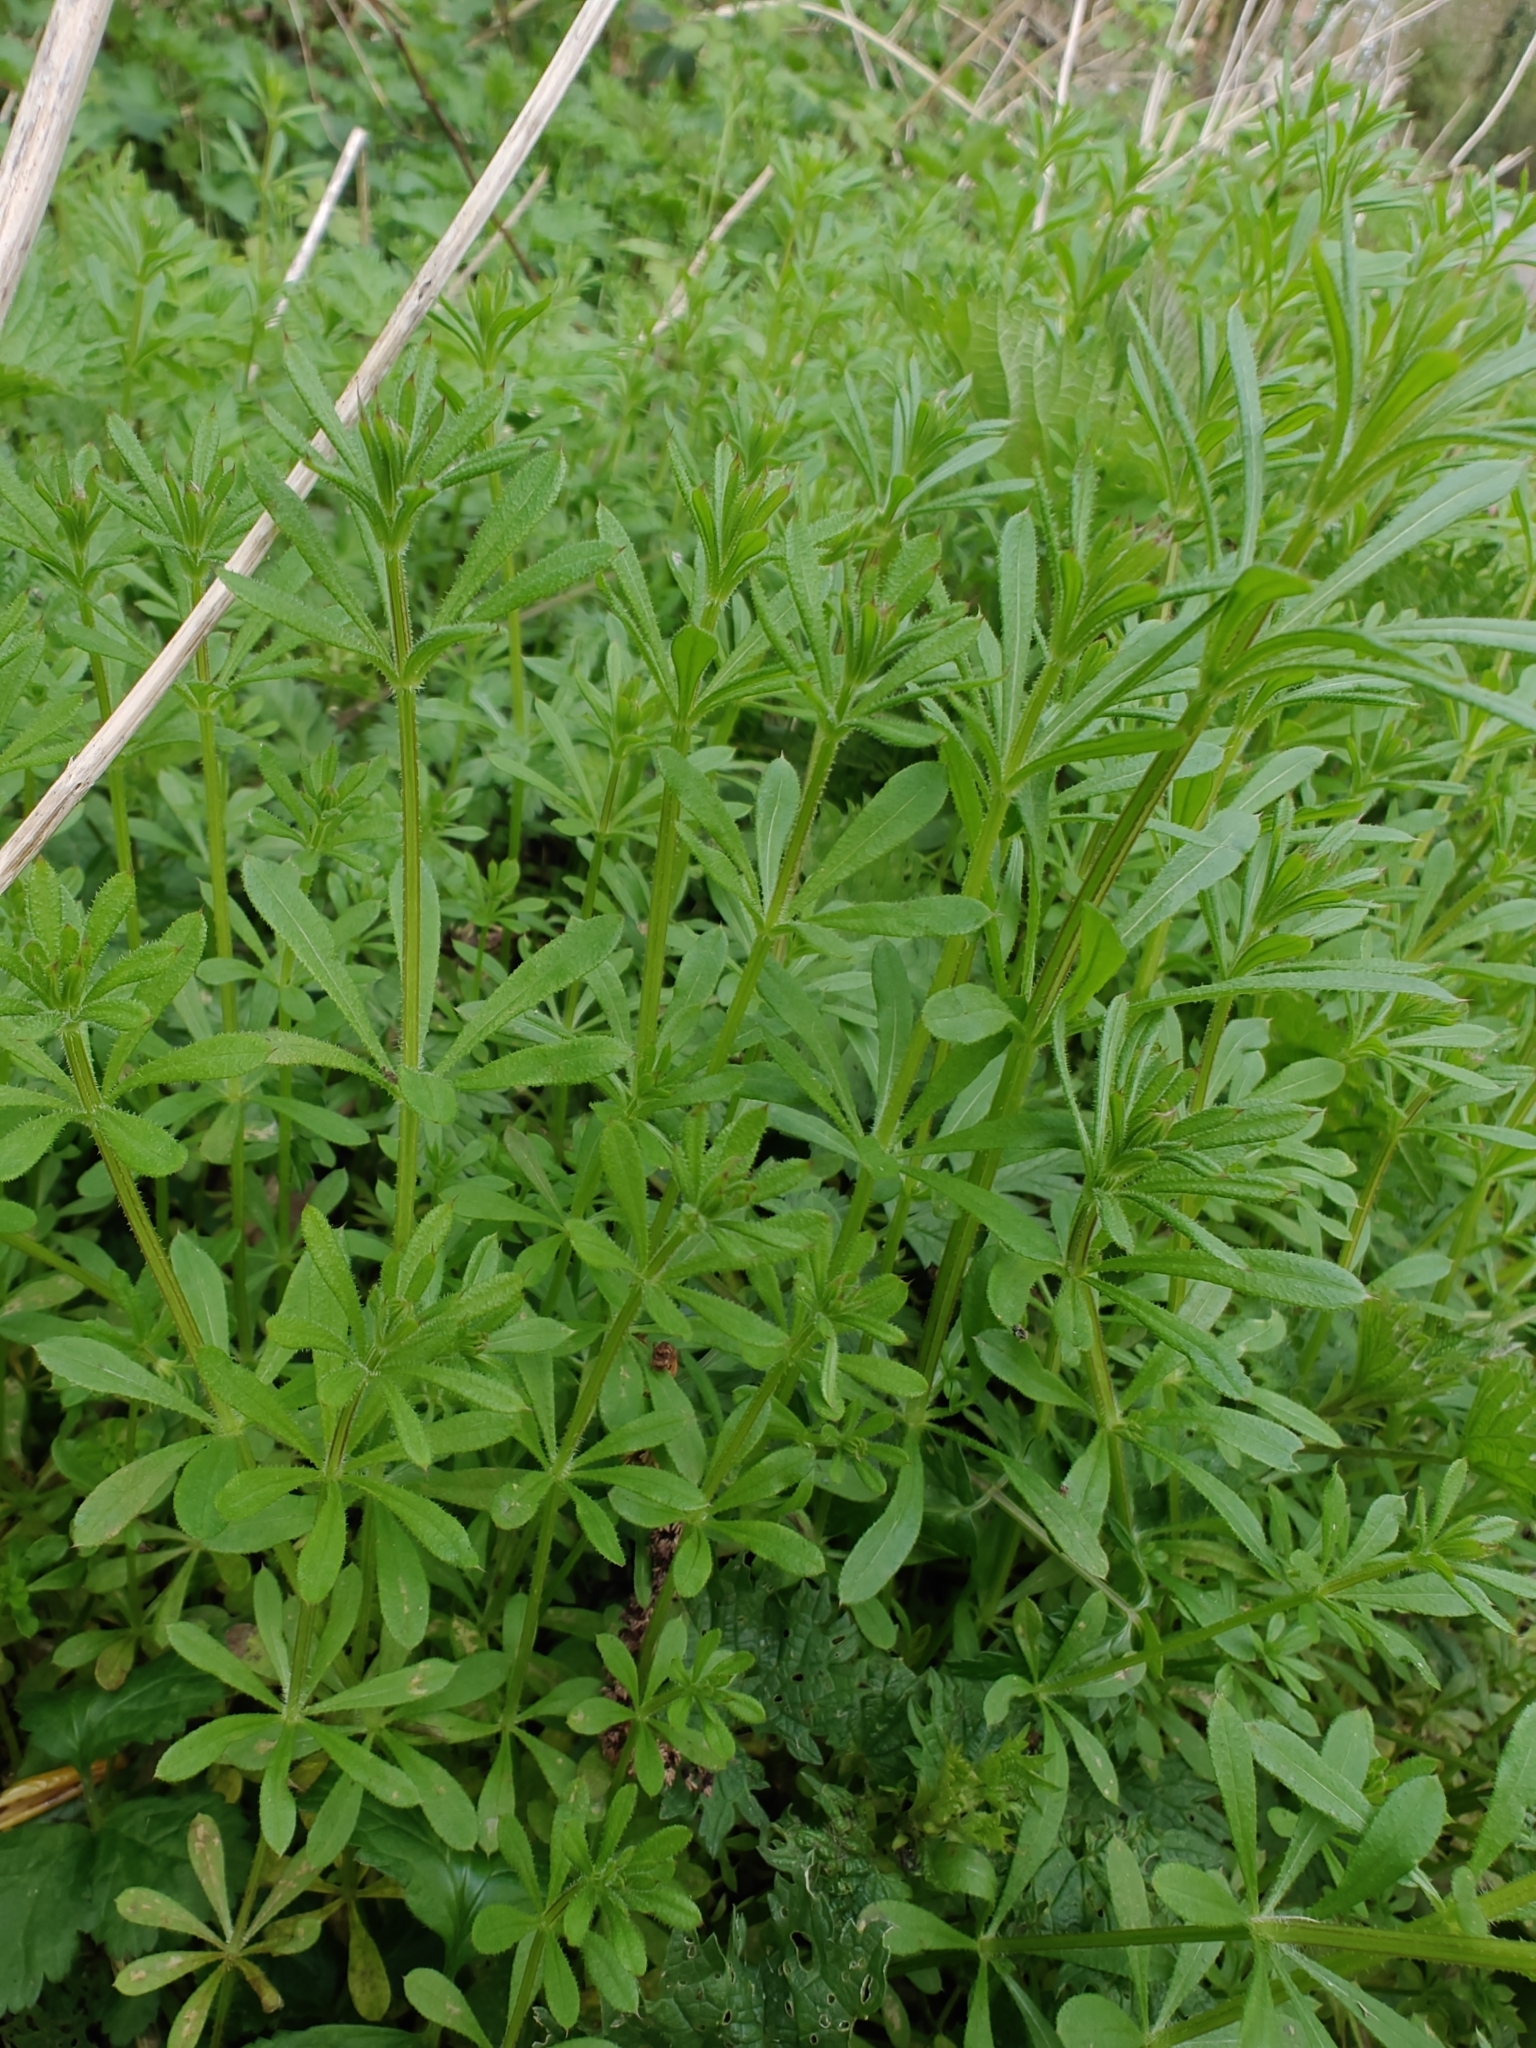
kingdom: Plantae
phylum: Tracheophyta
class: Magnoliopsida
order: Gentianales
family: Rubiaceae
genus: Galium
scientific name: Galium aparine
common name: Cleavers
